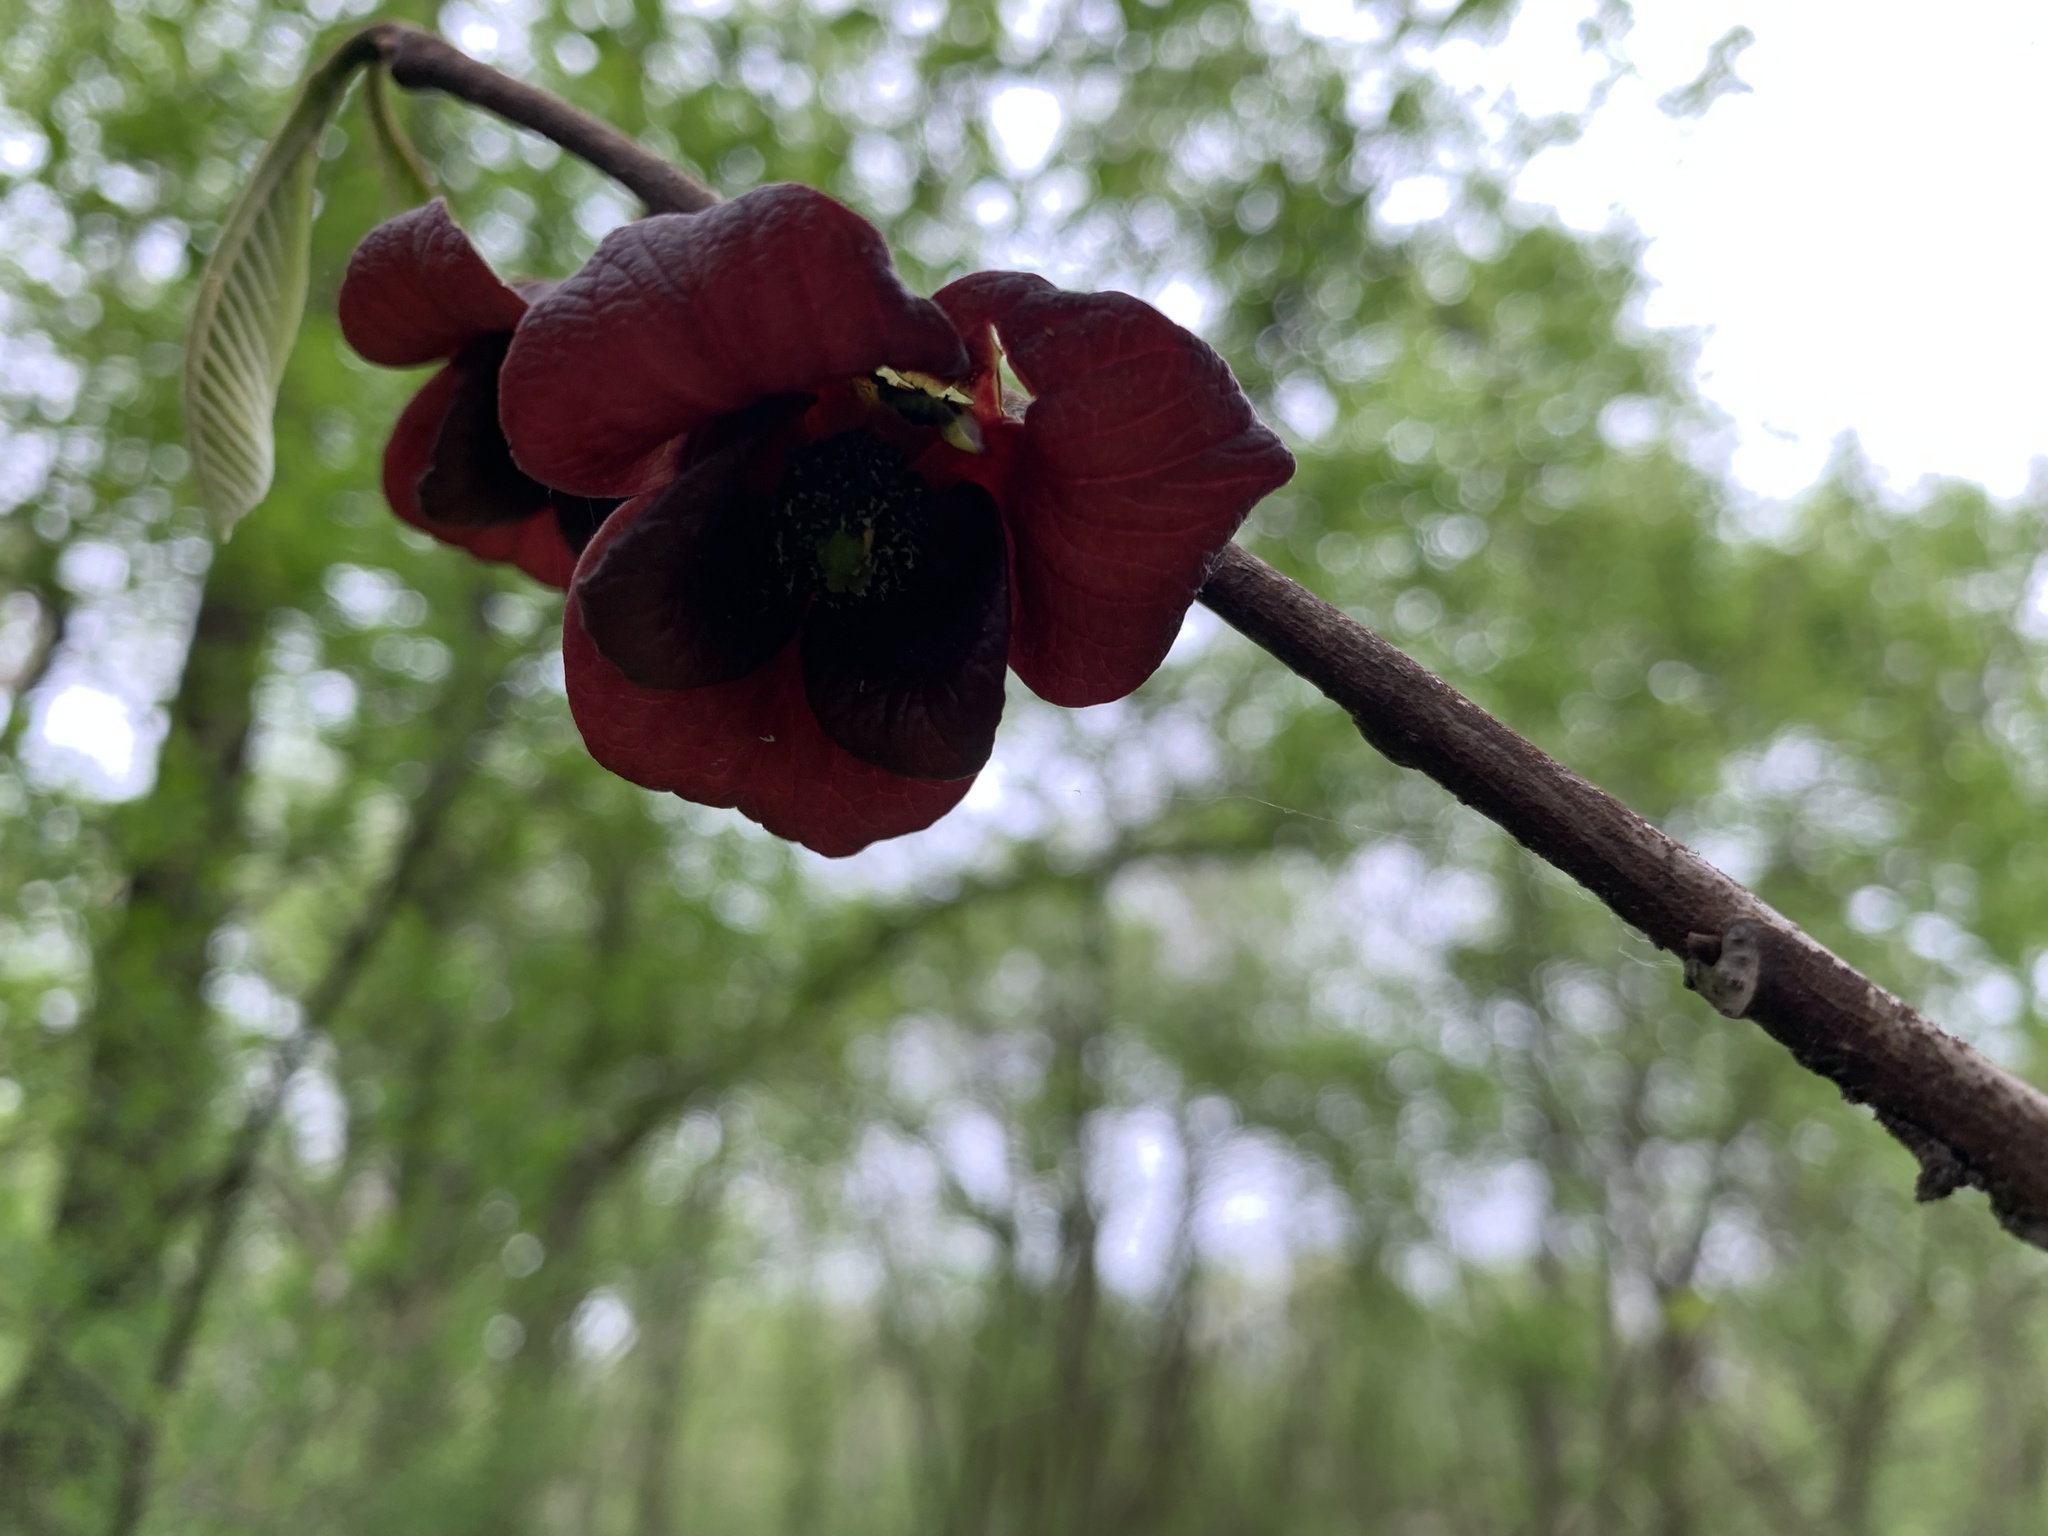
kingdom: Plantae
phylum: Tracheophyta
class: Magnoliopsida
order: Magnoliales
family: Annonaceae
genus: Asimina
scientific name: Asimina triloba
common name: Dog-banana
